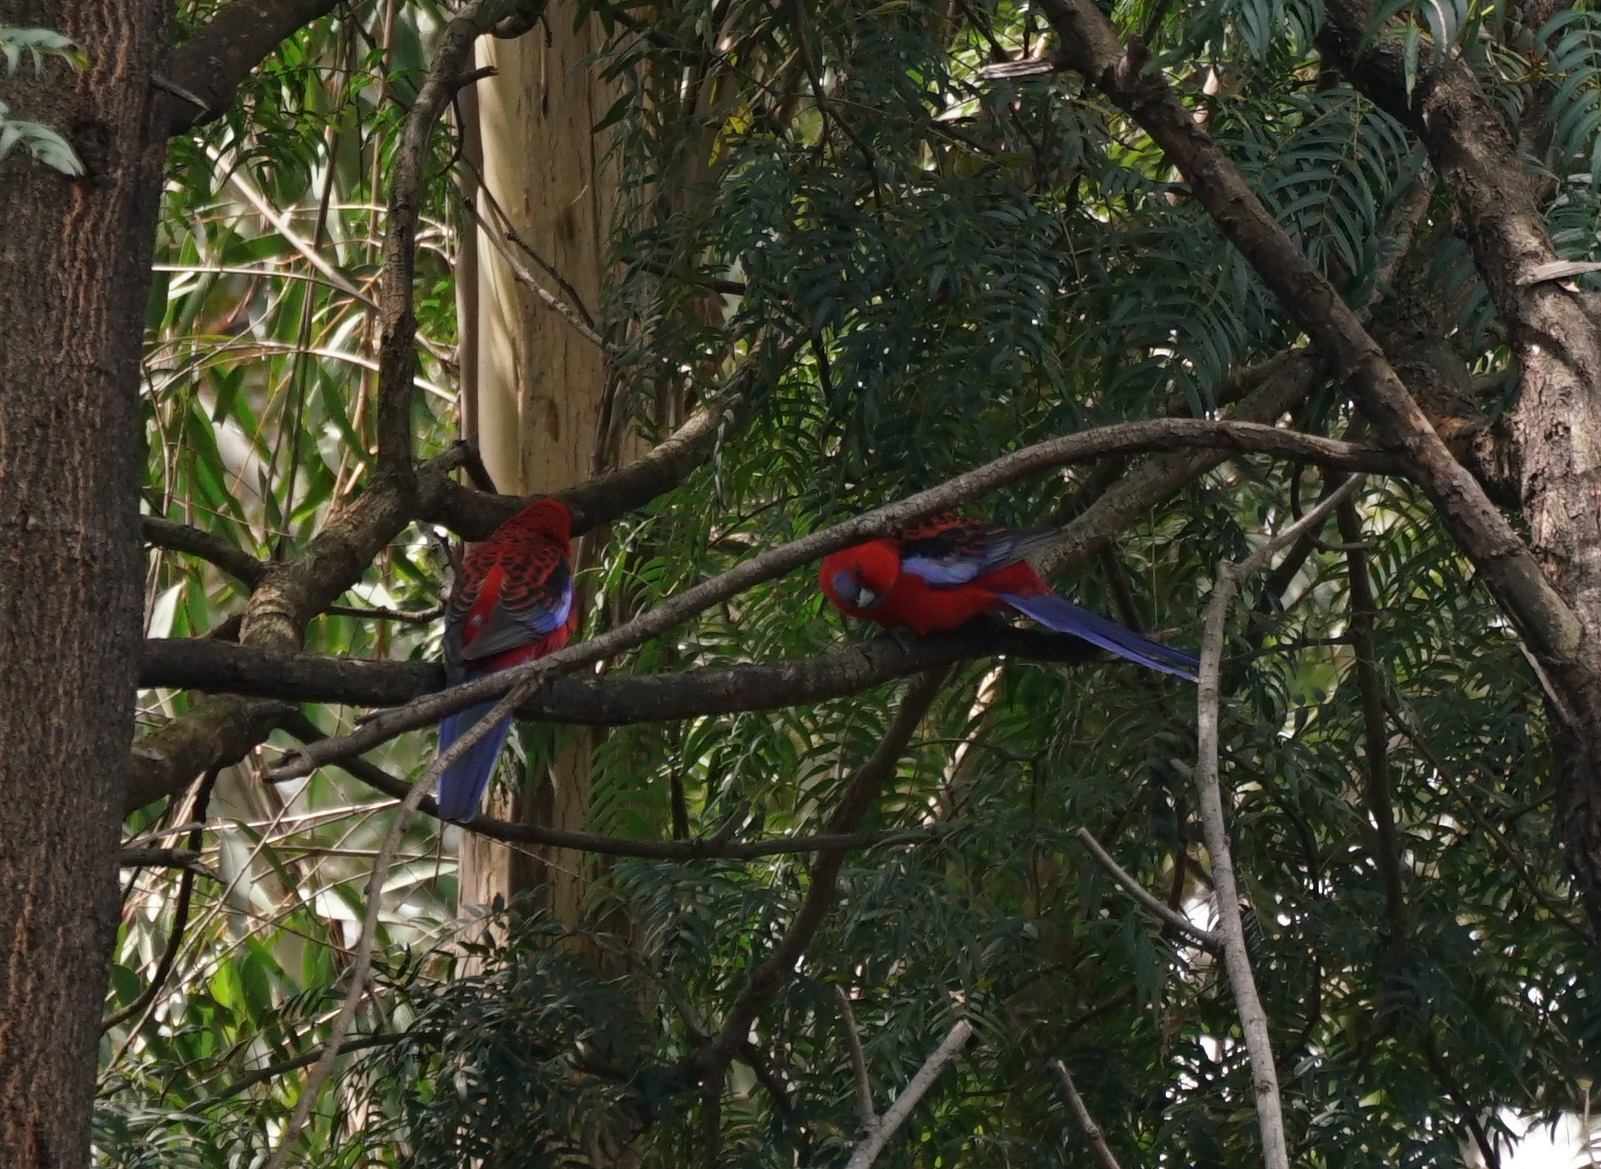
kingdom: Animalia
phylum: Chordata
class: Aves
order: Psittaciformes
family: Psittacidae
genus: Platycercus
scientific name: Platycercus elegans
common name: Crimson rosella
